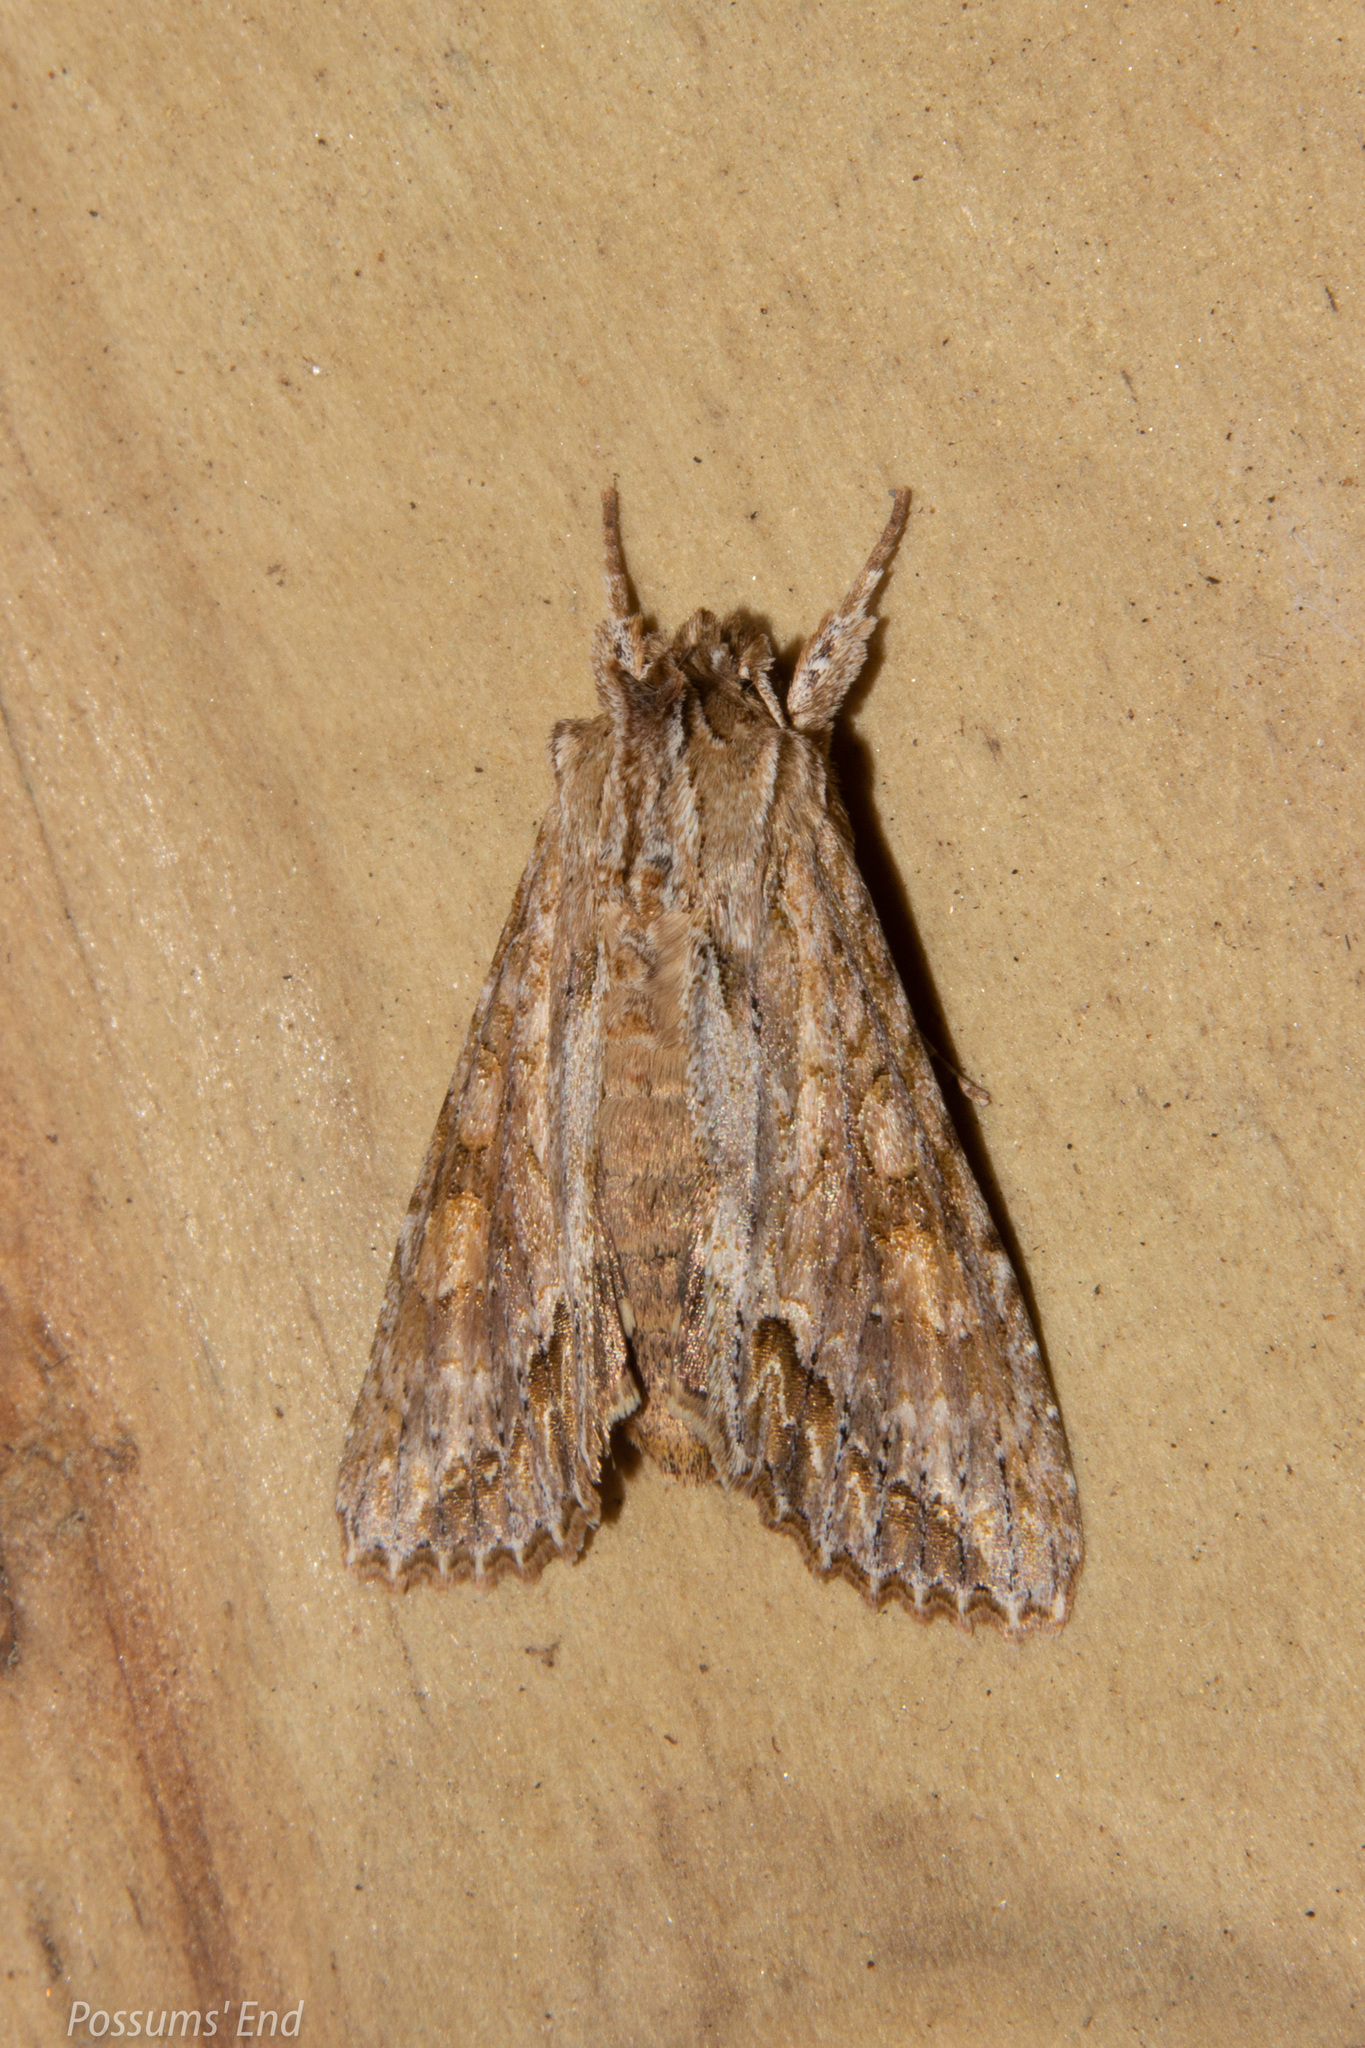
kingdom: Animalia
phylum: Arthropoda
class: Insecta
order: Lepidoptera
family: Noctuidae
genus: Ichneutica
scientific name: Ichneutica mollis
